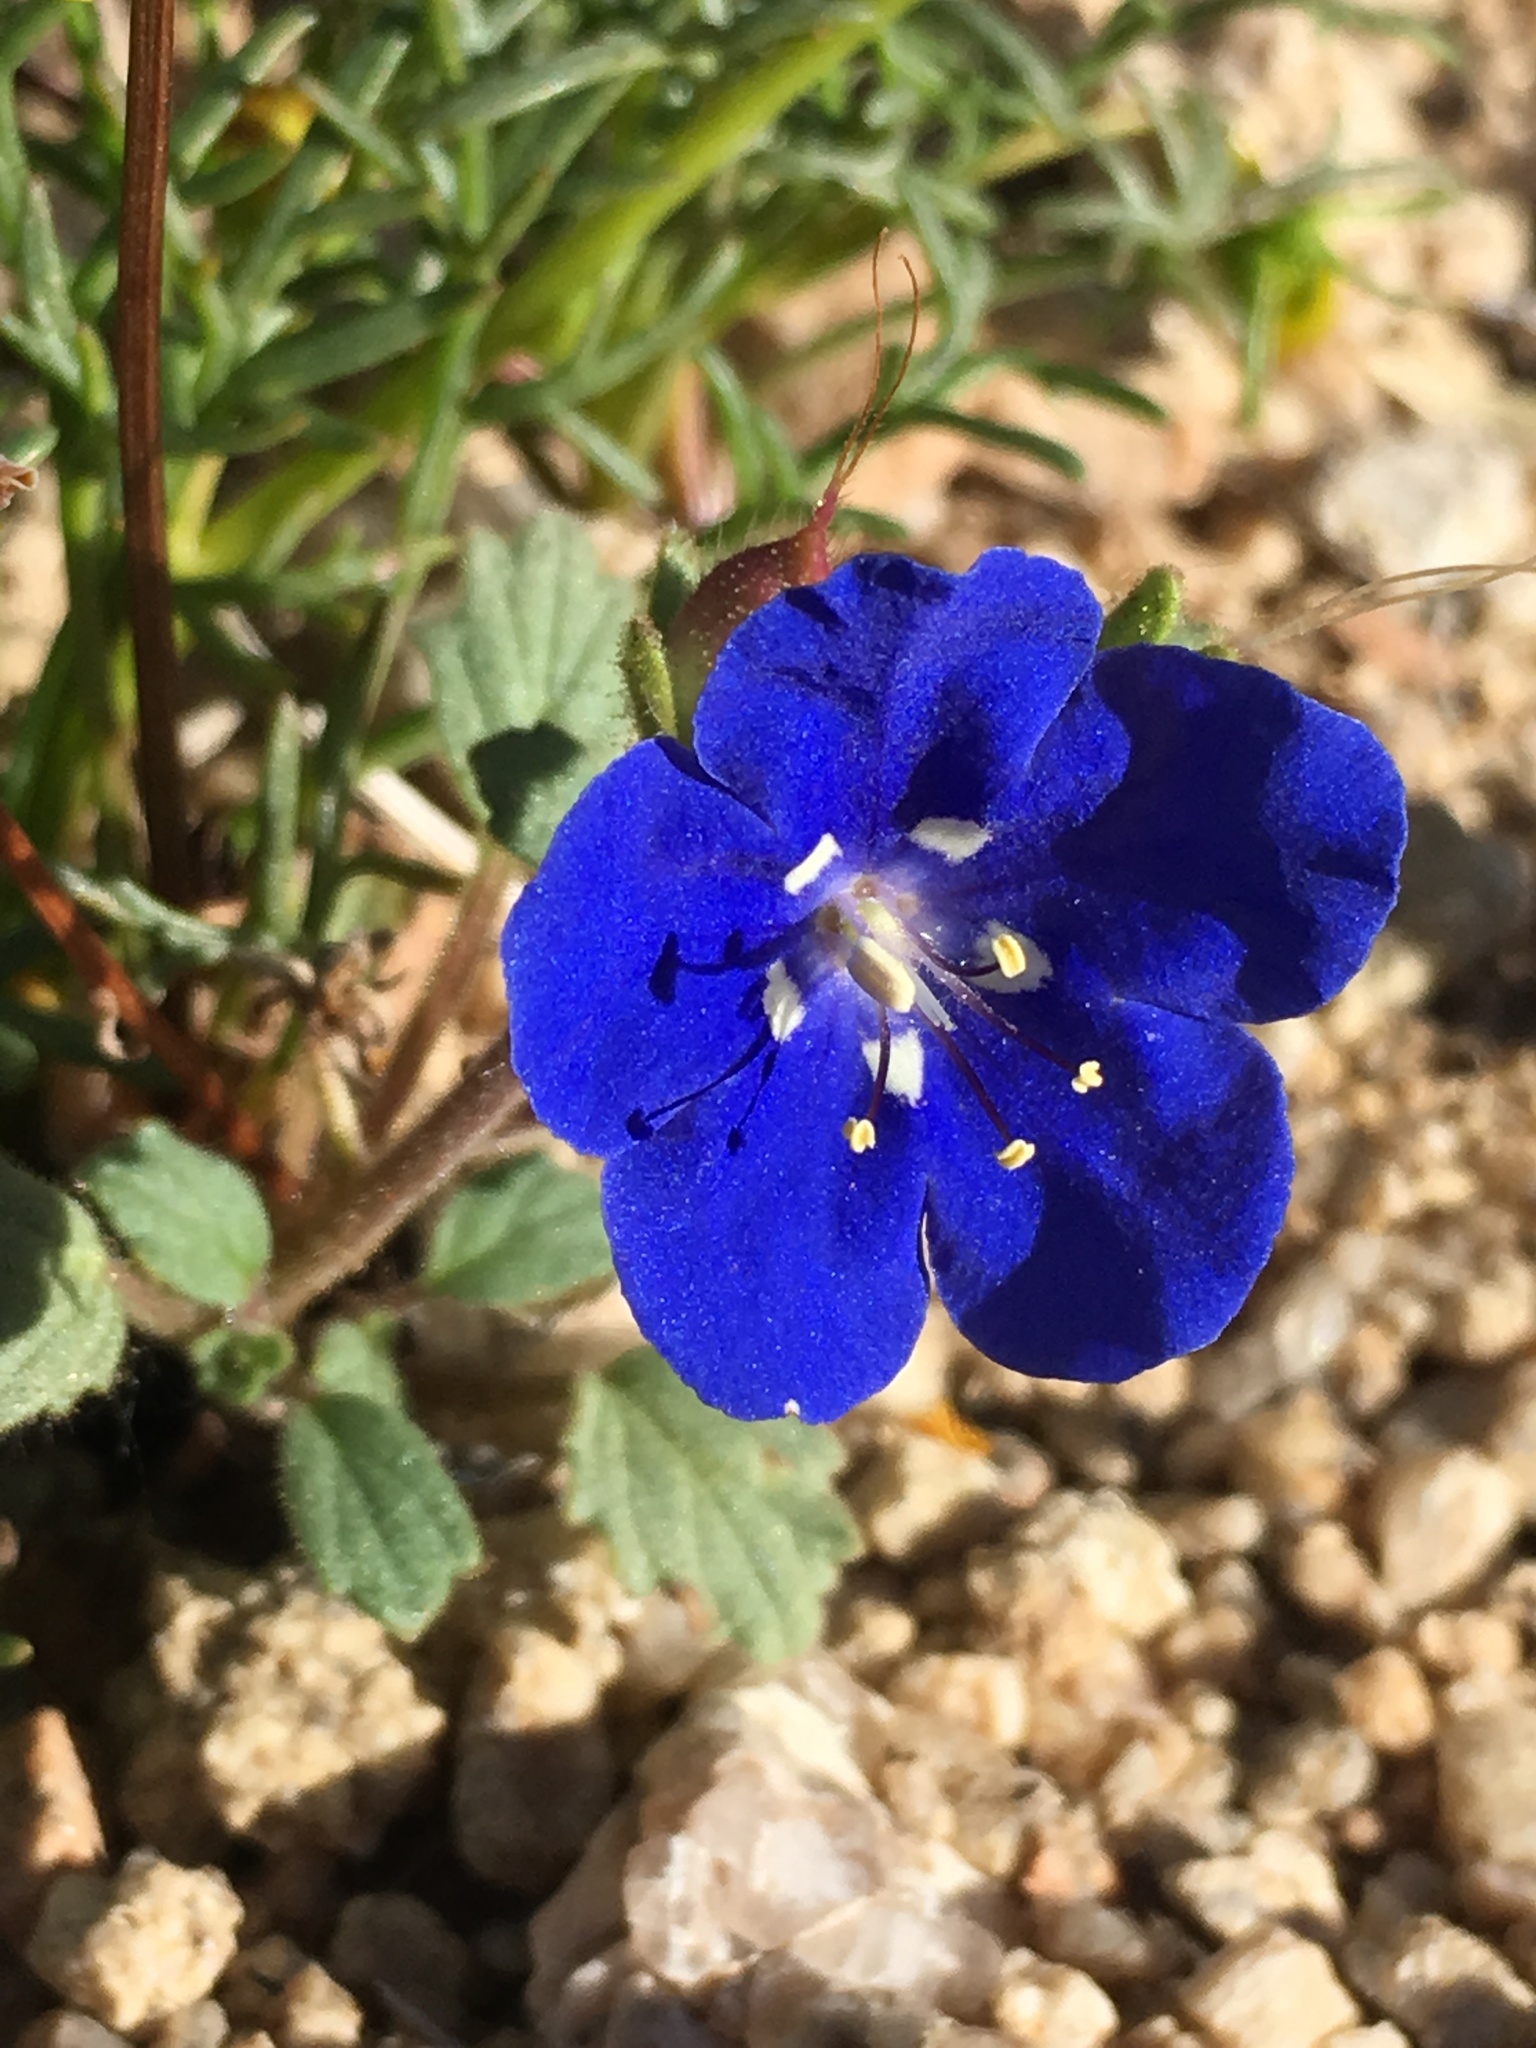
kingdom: Plantae
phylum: Tracheophyta
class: Magnoliopsida
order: Boraginales
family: Hydrophyllaceae
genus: Phacelia
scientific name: Phacelia nashiana
